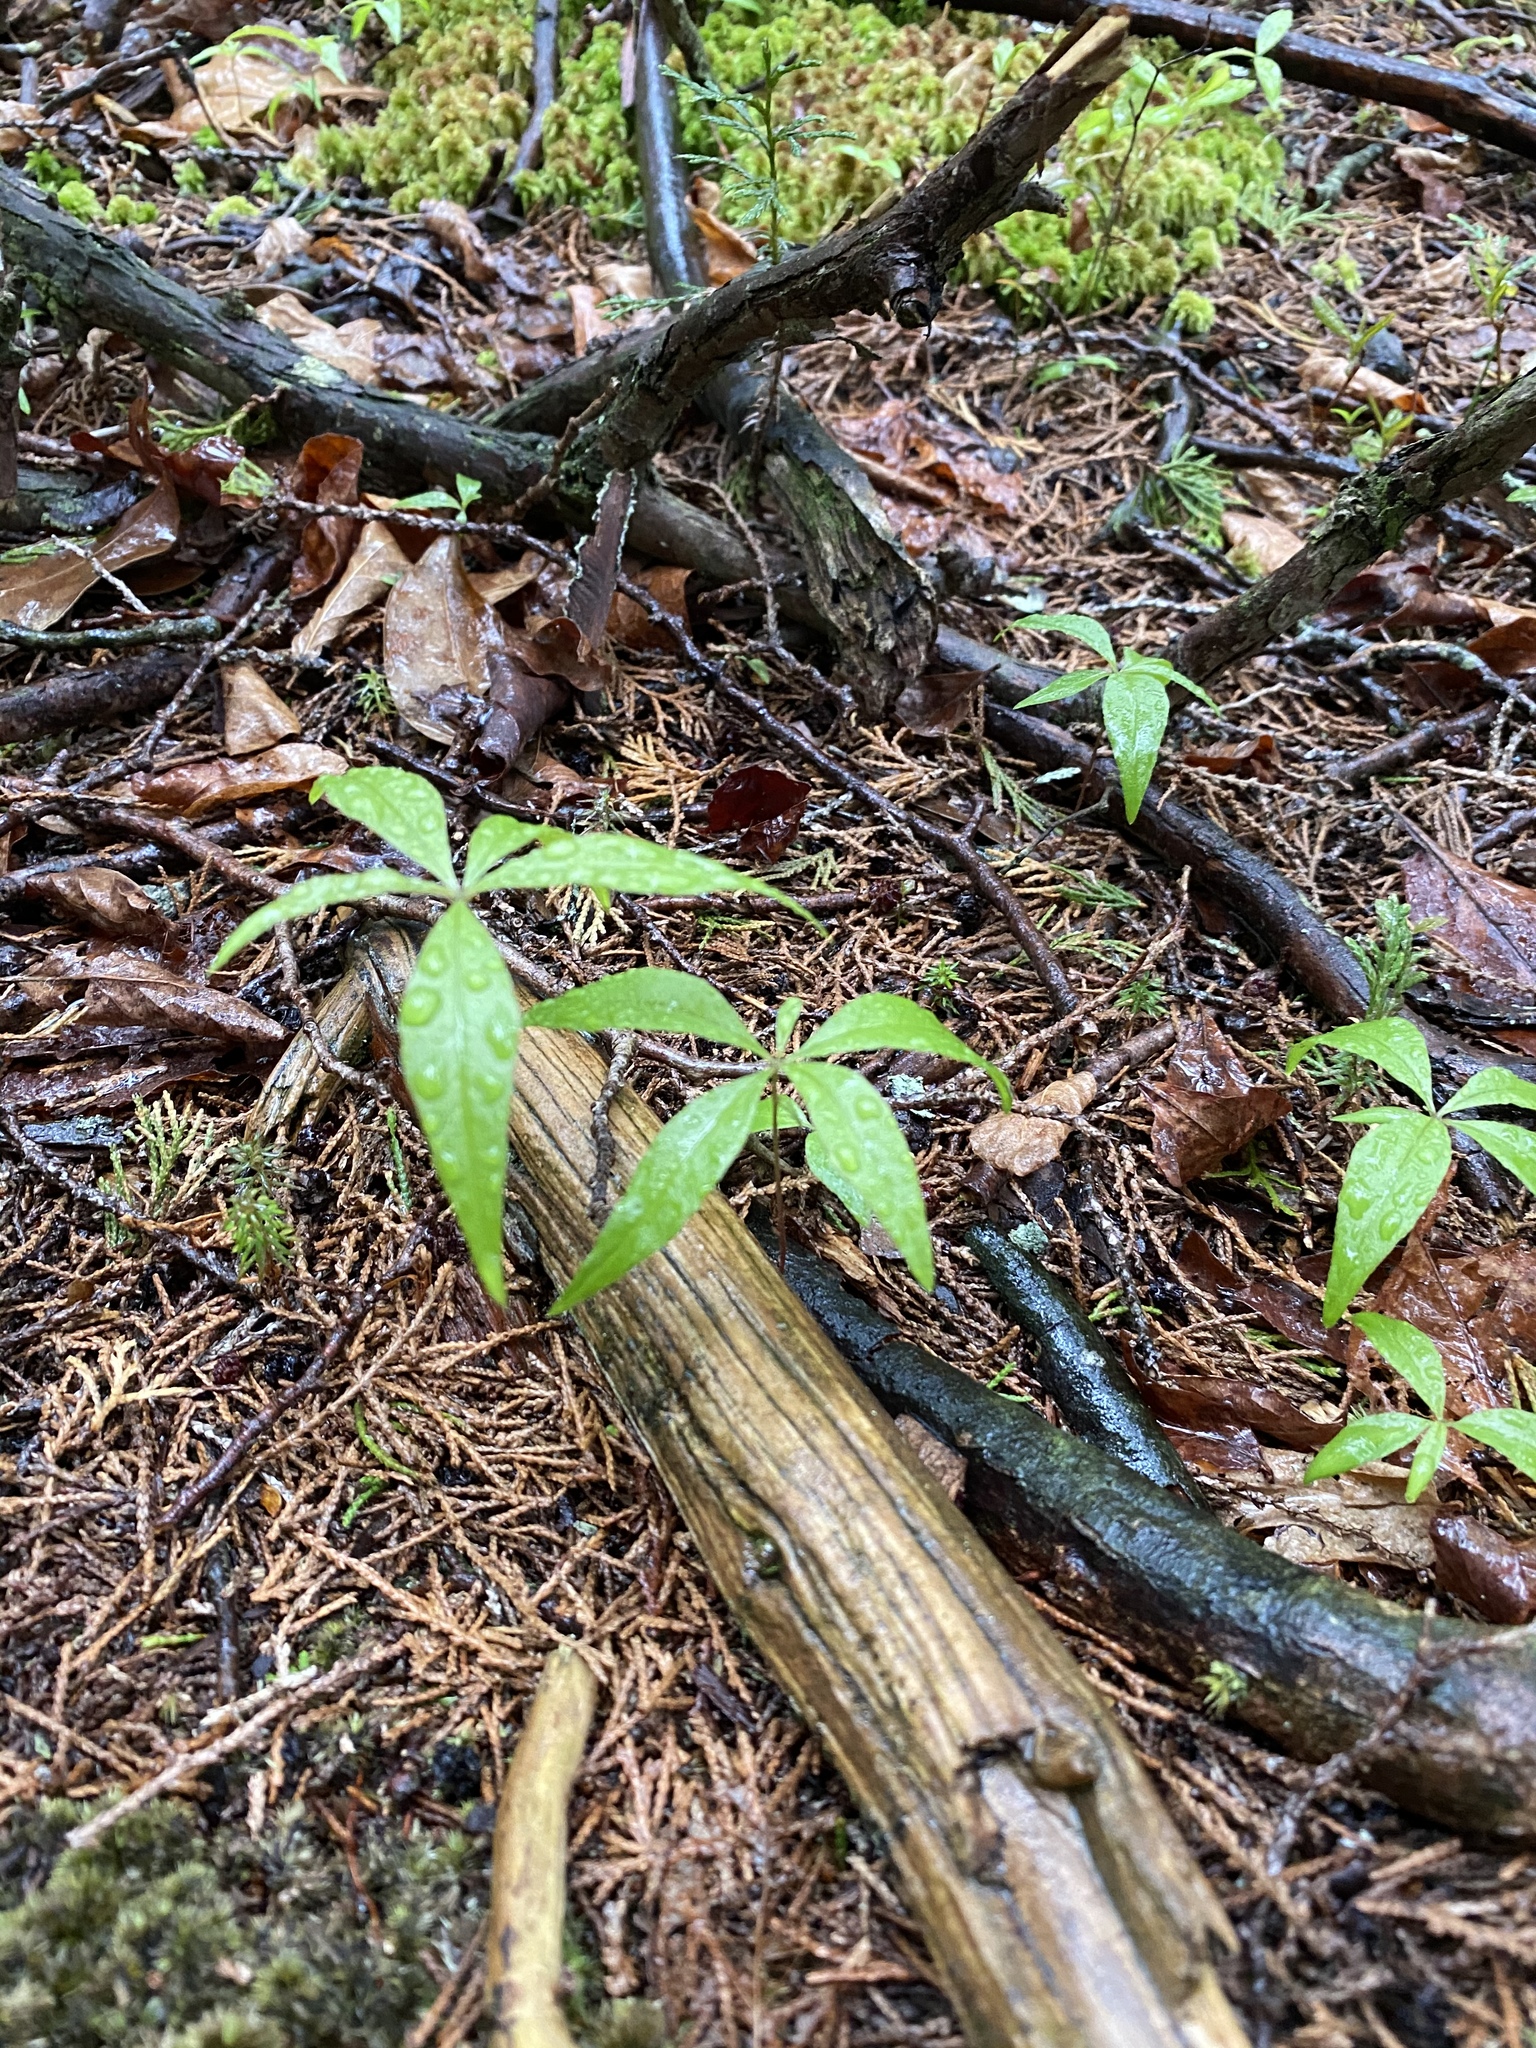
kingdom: Plantae
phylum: Tracheophyta
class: Magnoliopsida
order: Ericales
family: Primulaceae
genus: Lysimachia
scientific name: Lysimachia borealis
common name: American starflower
